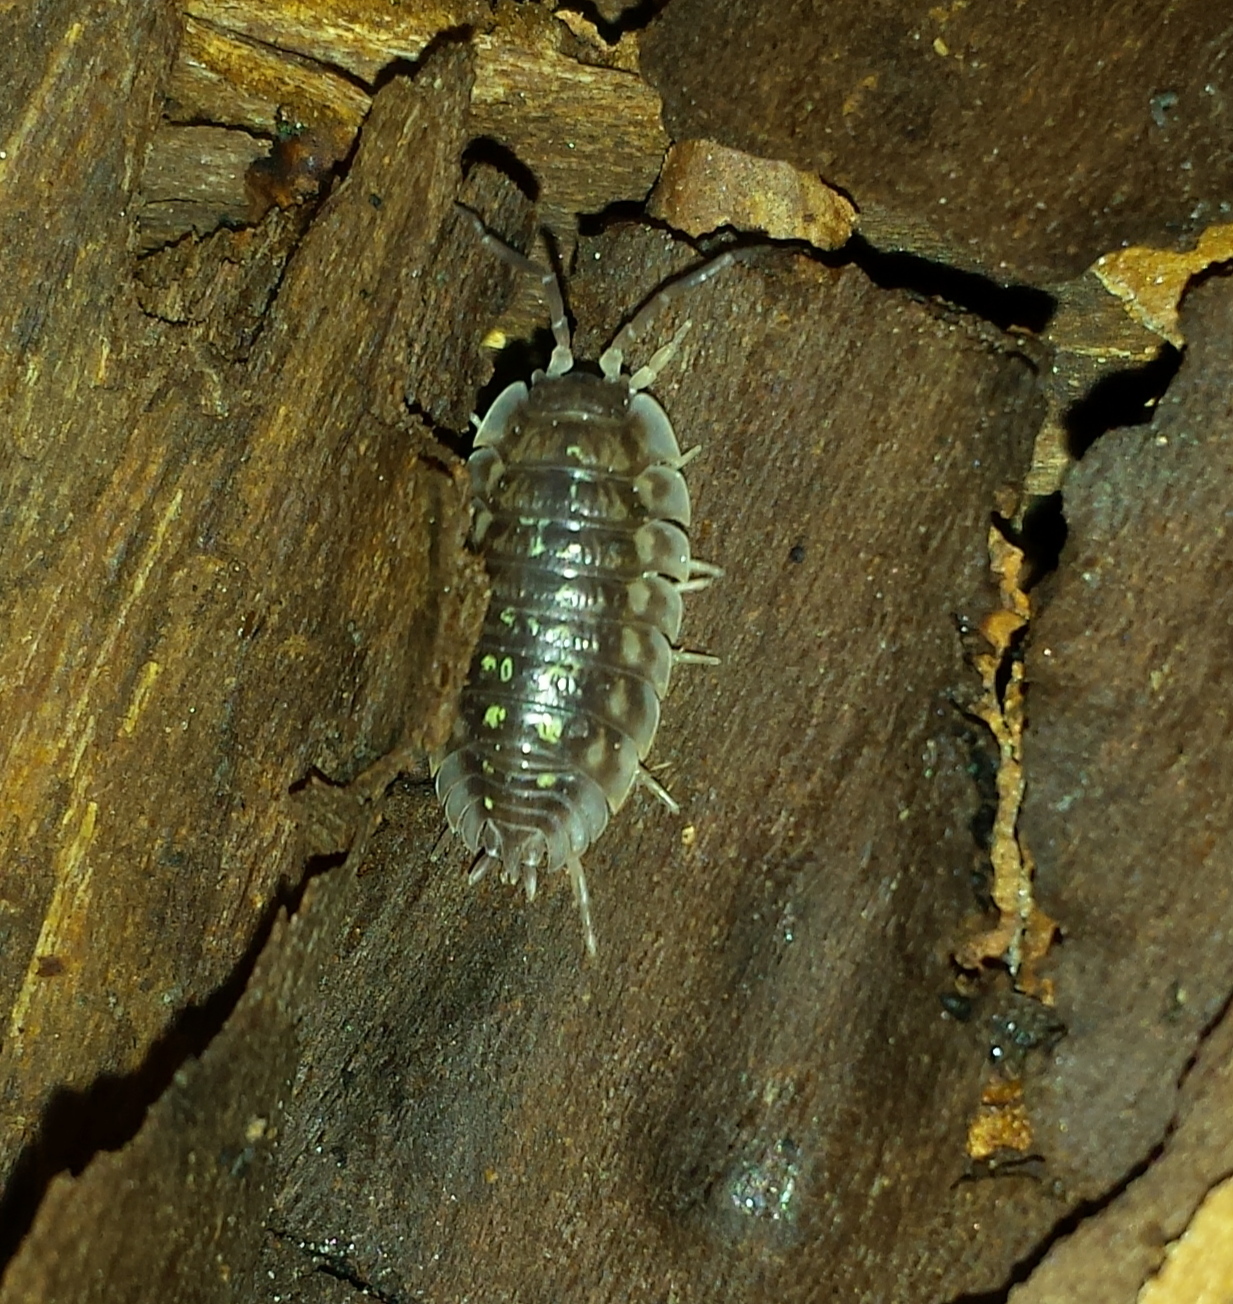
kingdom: Animalia
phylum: Arthropoda
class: Malacostraca
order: Isopoda
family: Oniscidae
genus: Oniscus
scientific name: Oniscus asellus
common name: Common shiny woodlouse
